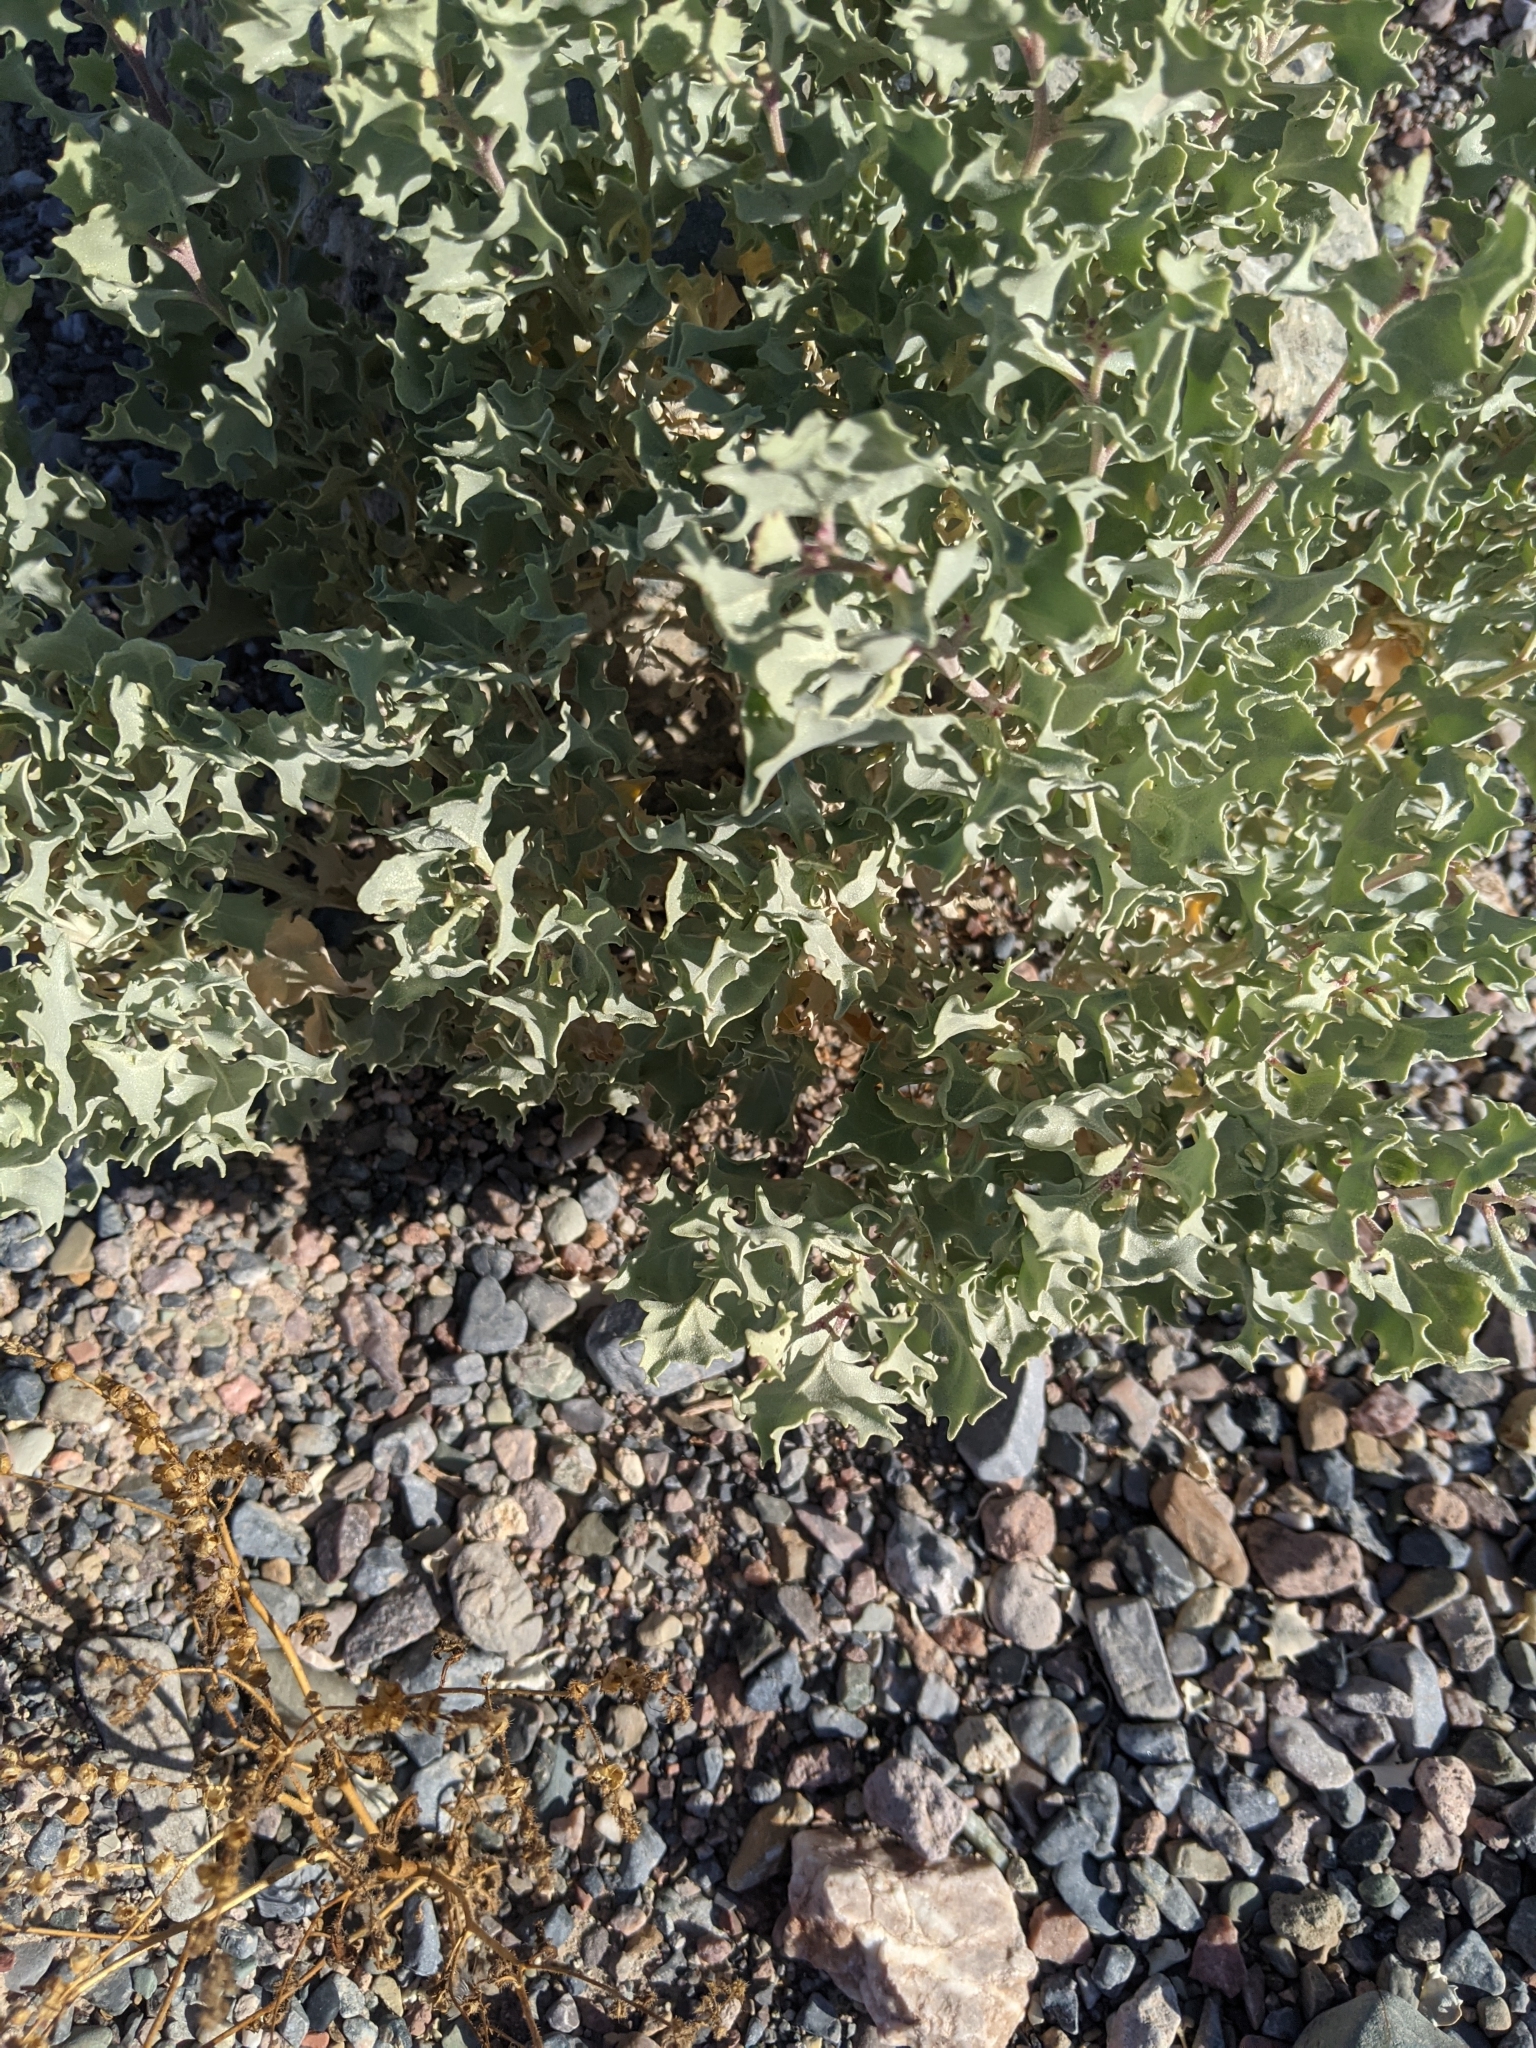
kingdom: Plantae
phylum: Tracheophyta
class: Magnoliopsida
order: Caryophyllales
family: Amaranthaceae
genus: Atriplex
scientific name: Atriplex hymenelytra
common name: Desert-holly
